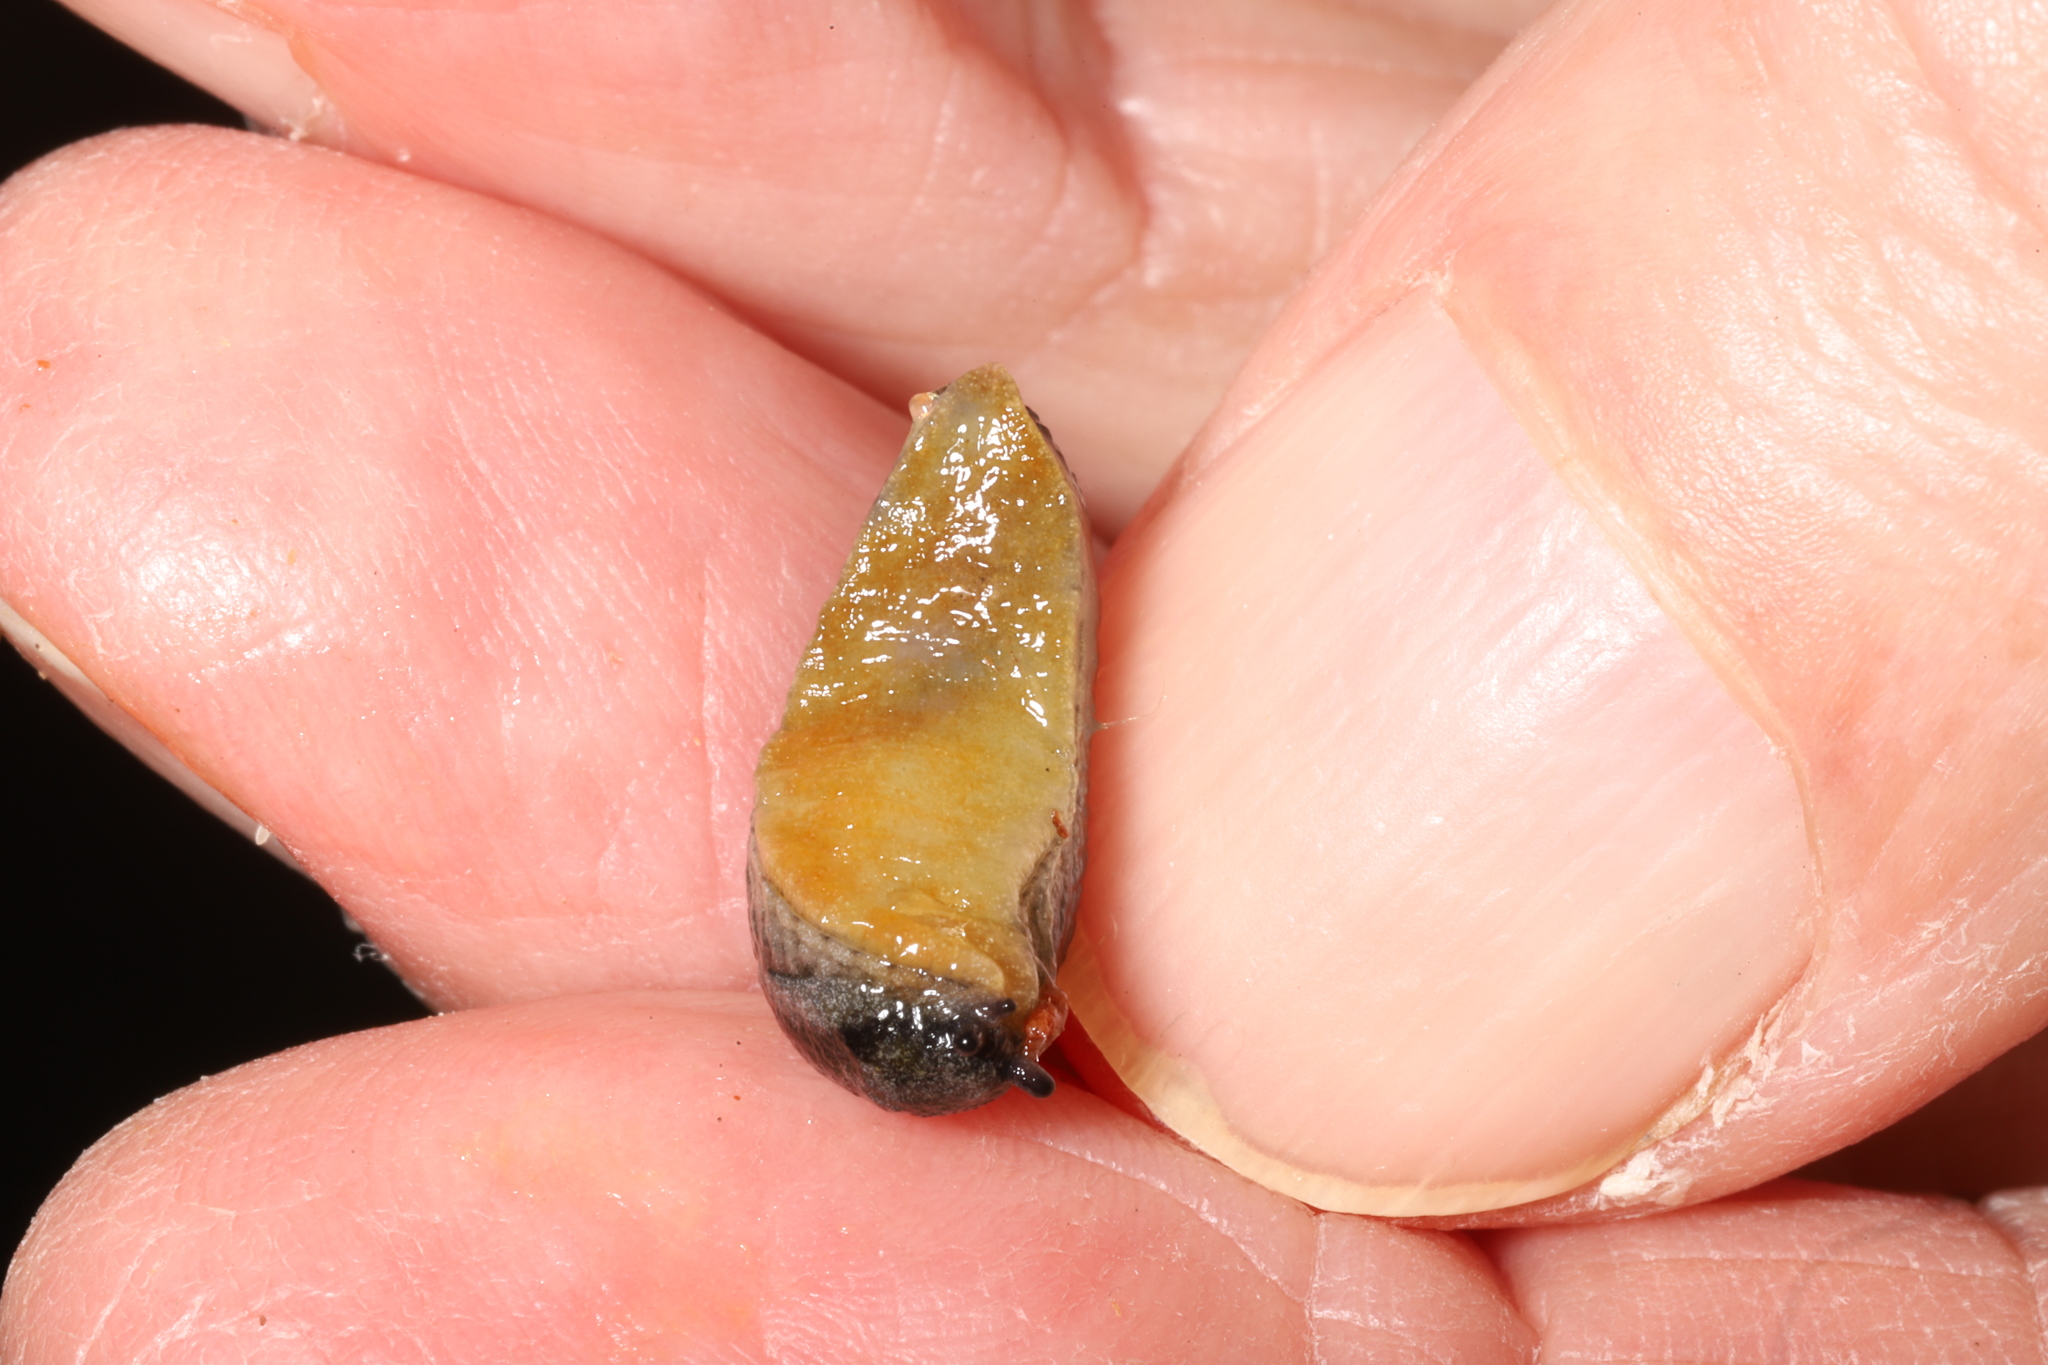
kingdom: Animalia
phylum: Mollusca
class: Gastropoda
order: Stylommatophora
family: Arionidae
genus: Arion
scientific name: Arion hortensis
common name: Garden arion
